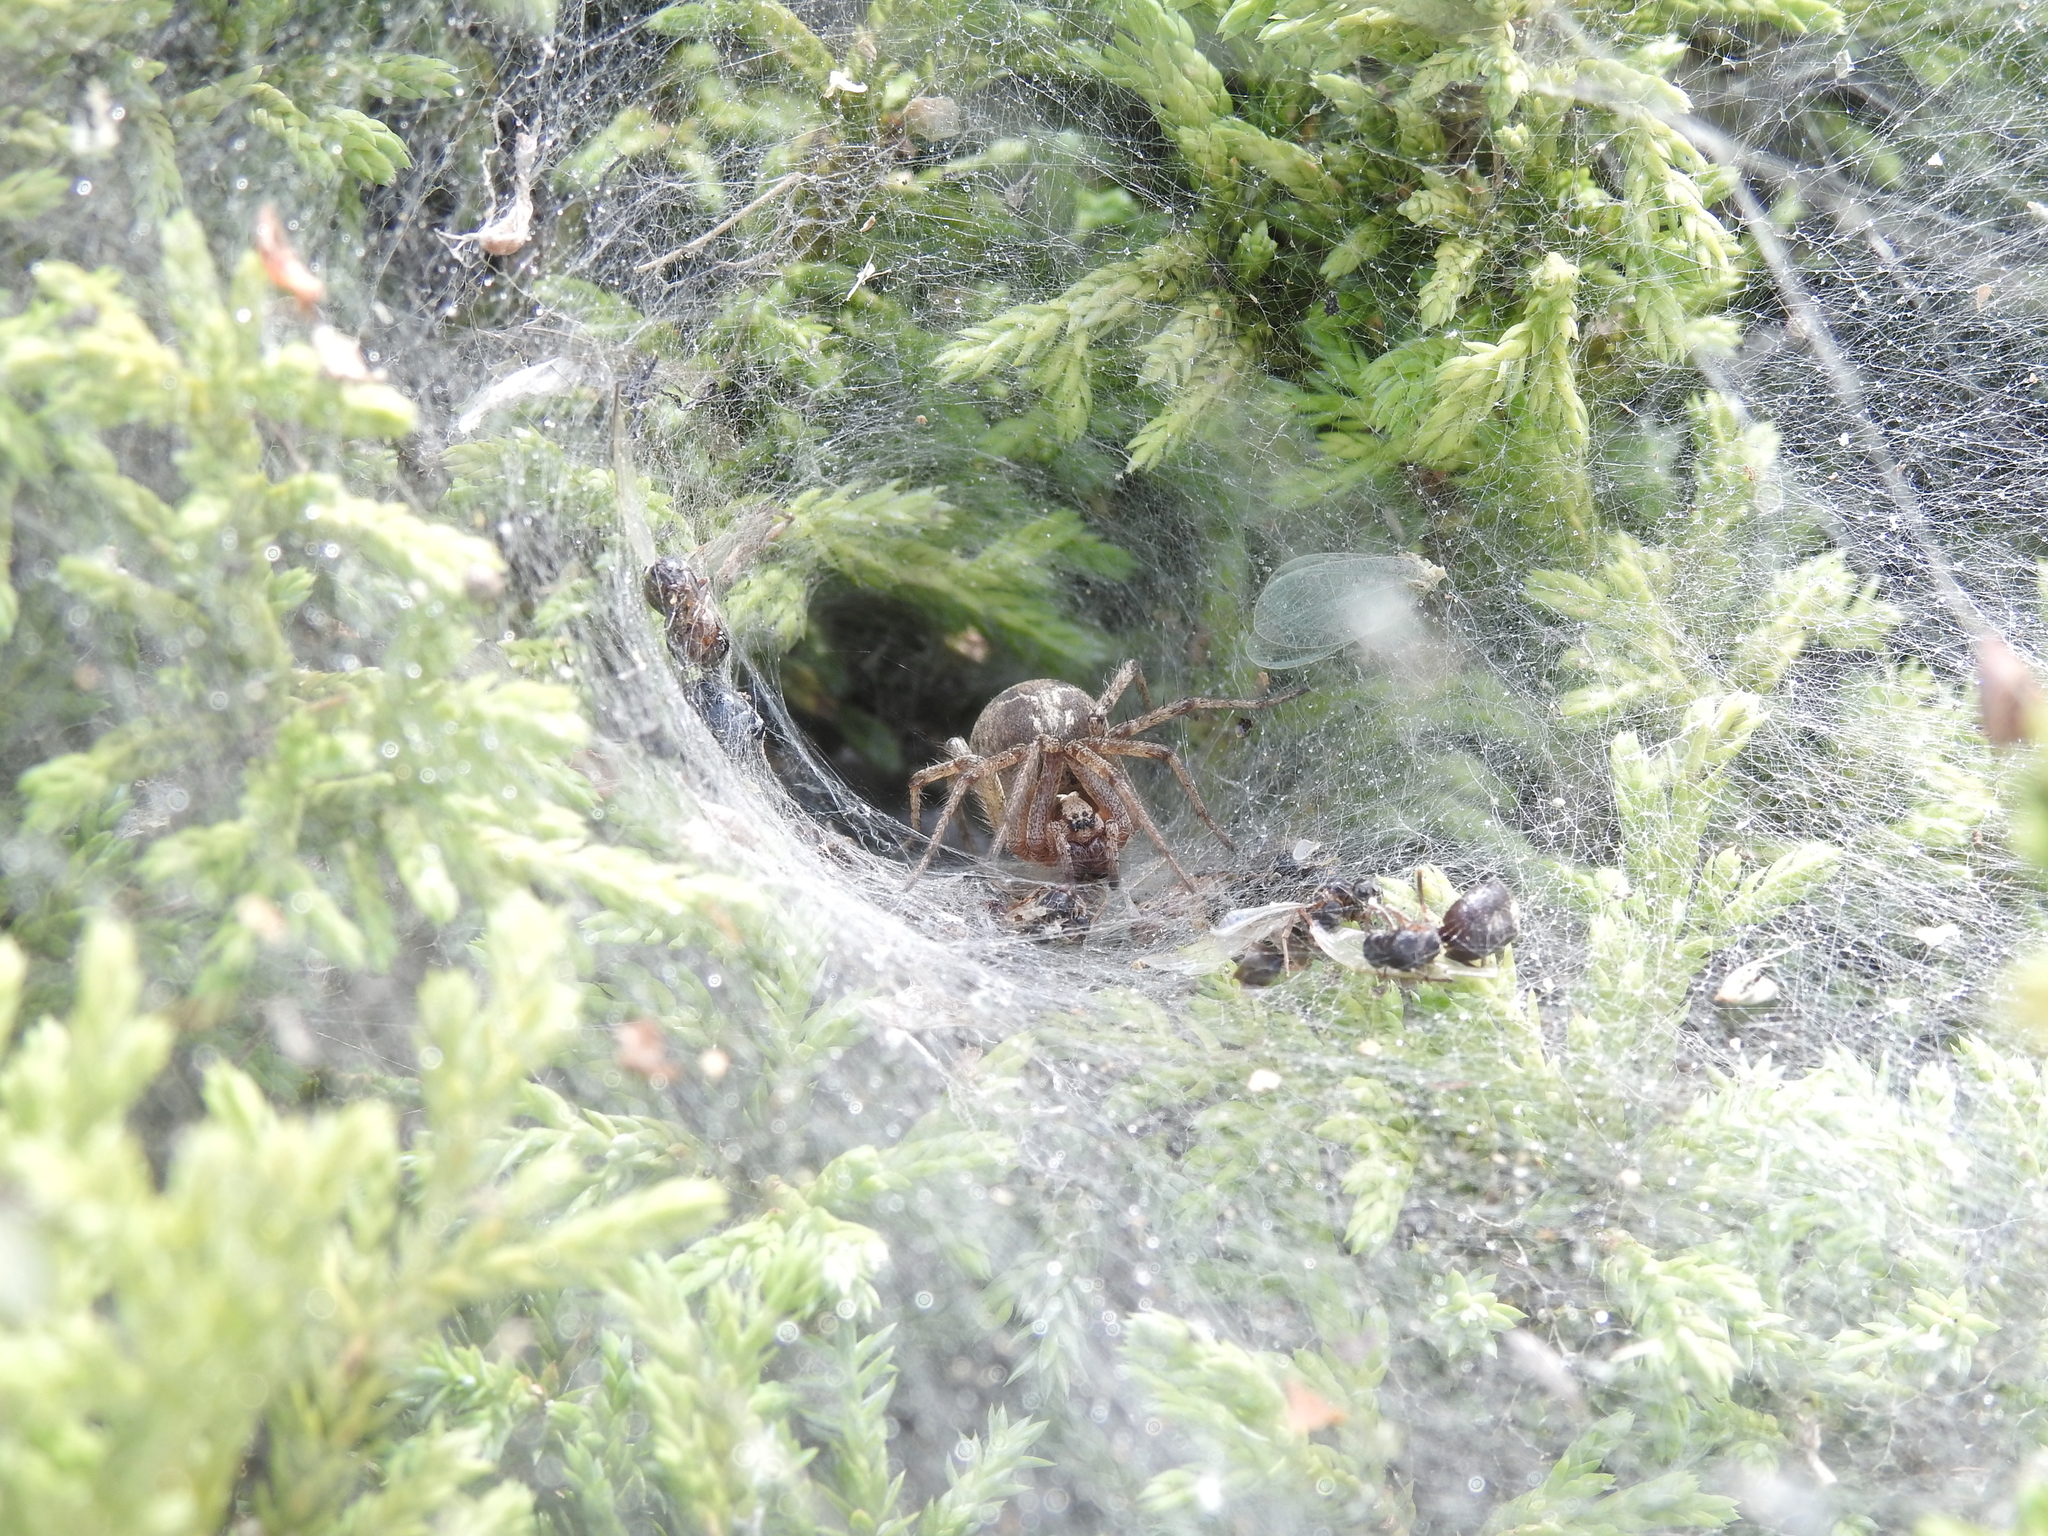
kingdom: Animalia
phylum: Arthropoda
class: Arachnida
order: Araneae
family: Agelenidae
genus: Agelena
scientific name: Agelena labyrinthica
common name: Labyrinth spider
